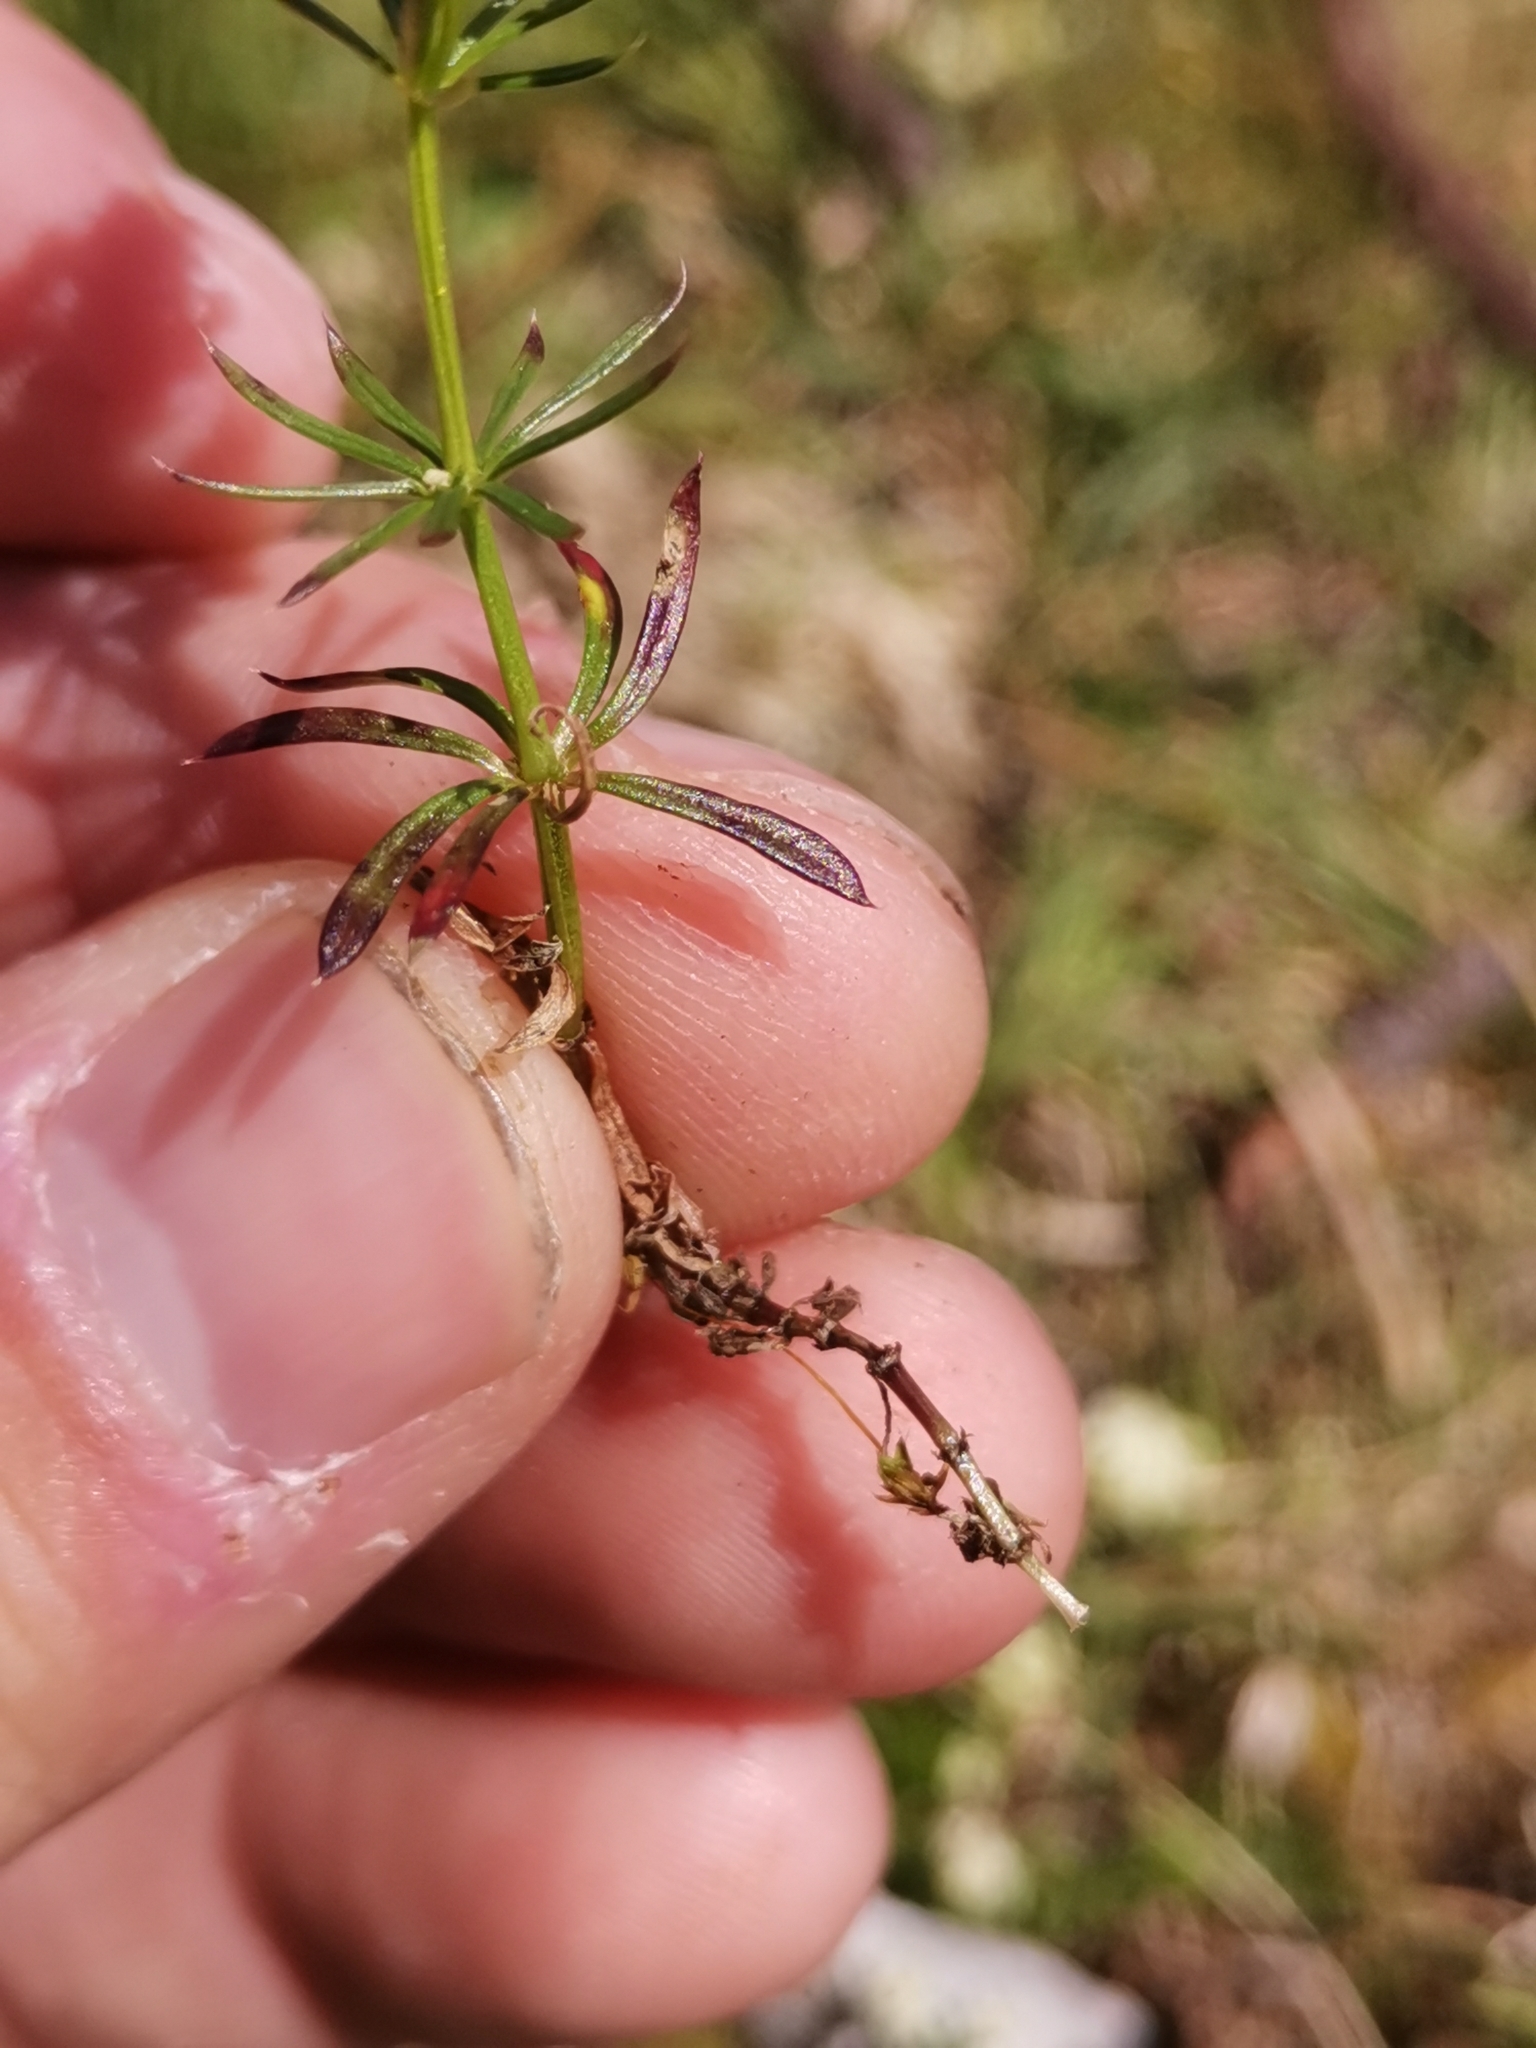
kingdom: Plantae
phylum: Tracheophyta
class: Magnoliopsida
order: Gentianales
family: Rubiaceae
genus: Galium
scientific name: Galium anisophyllon
